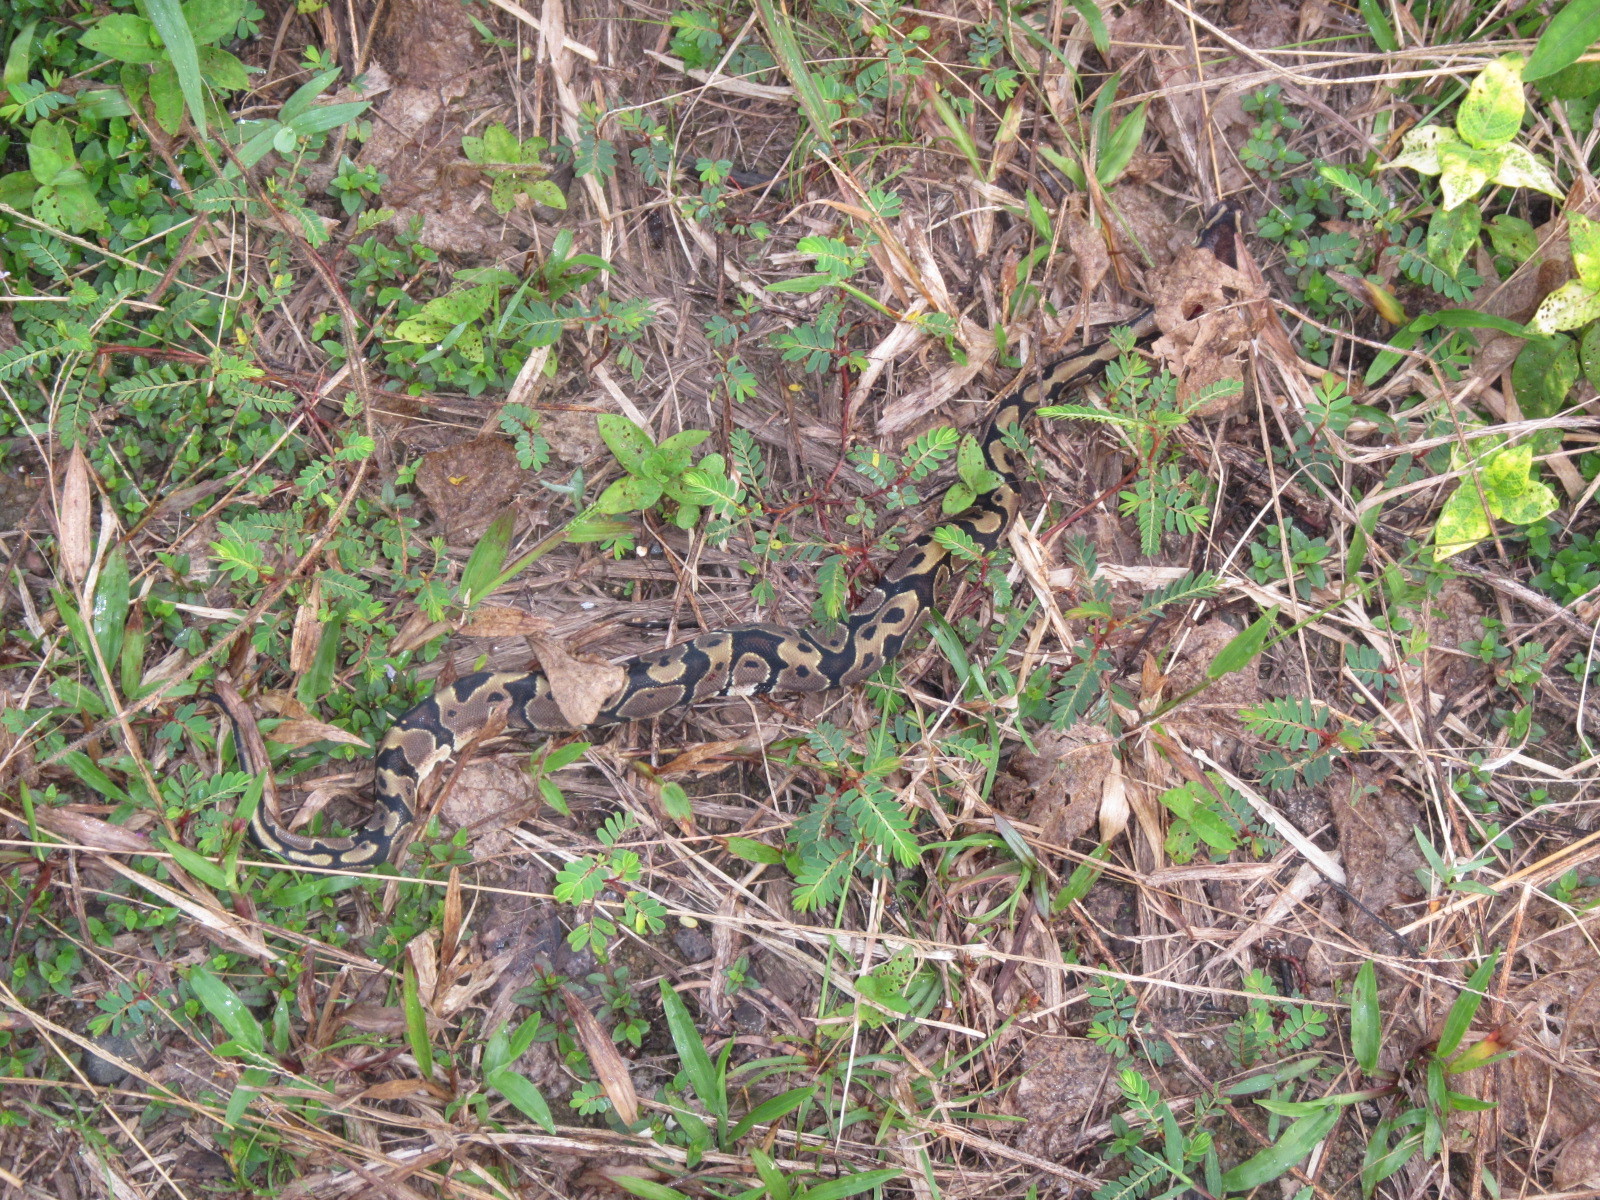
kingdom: Animalia
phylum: Chordata
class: Squamata
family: Pythonidae
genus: Python
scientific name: Python regius
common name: Ball python
